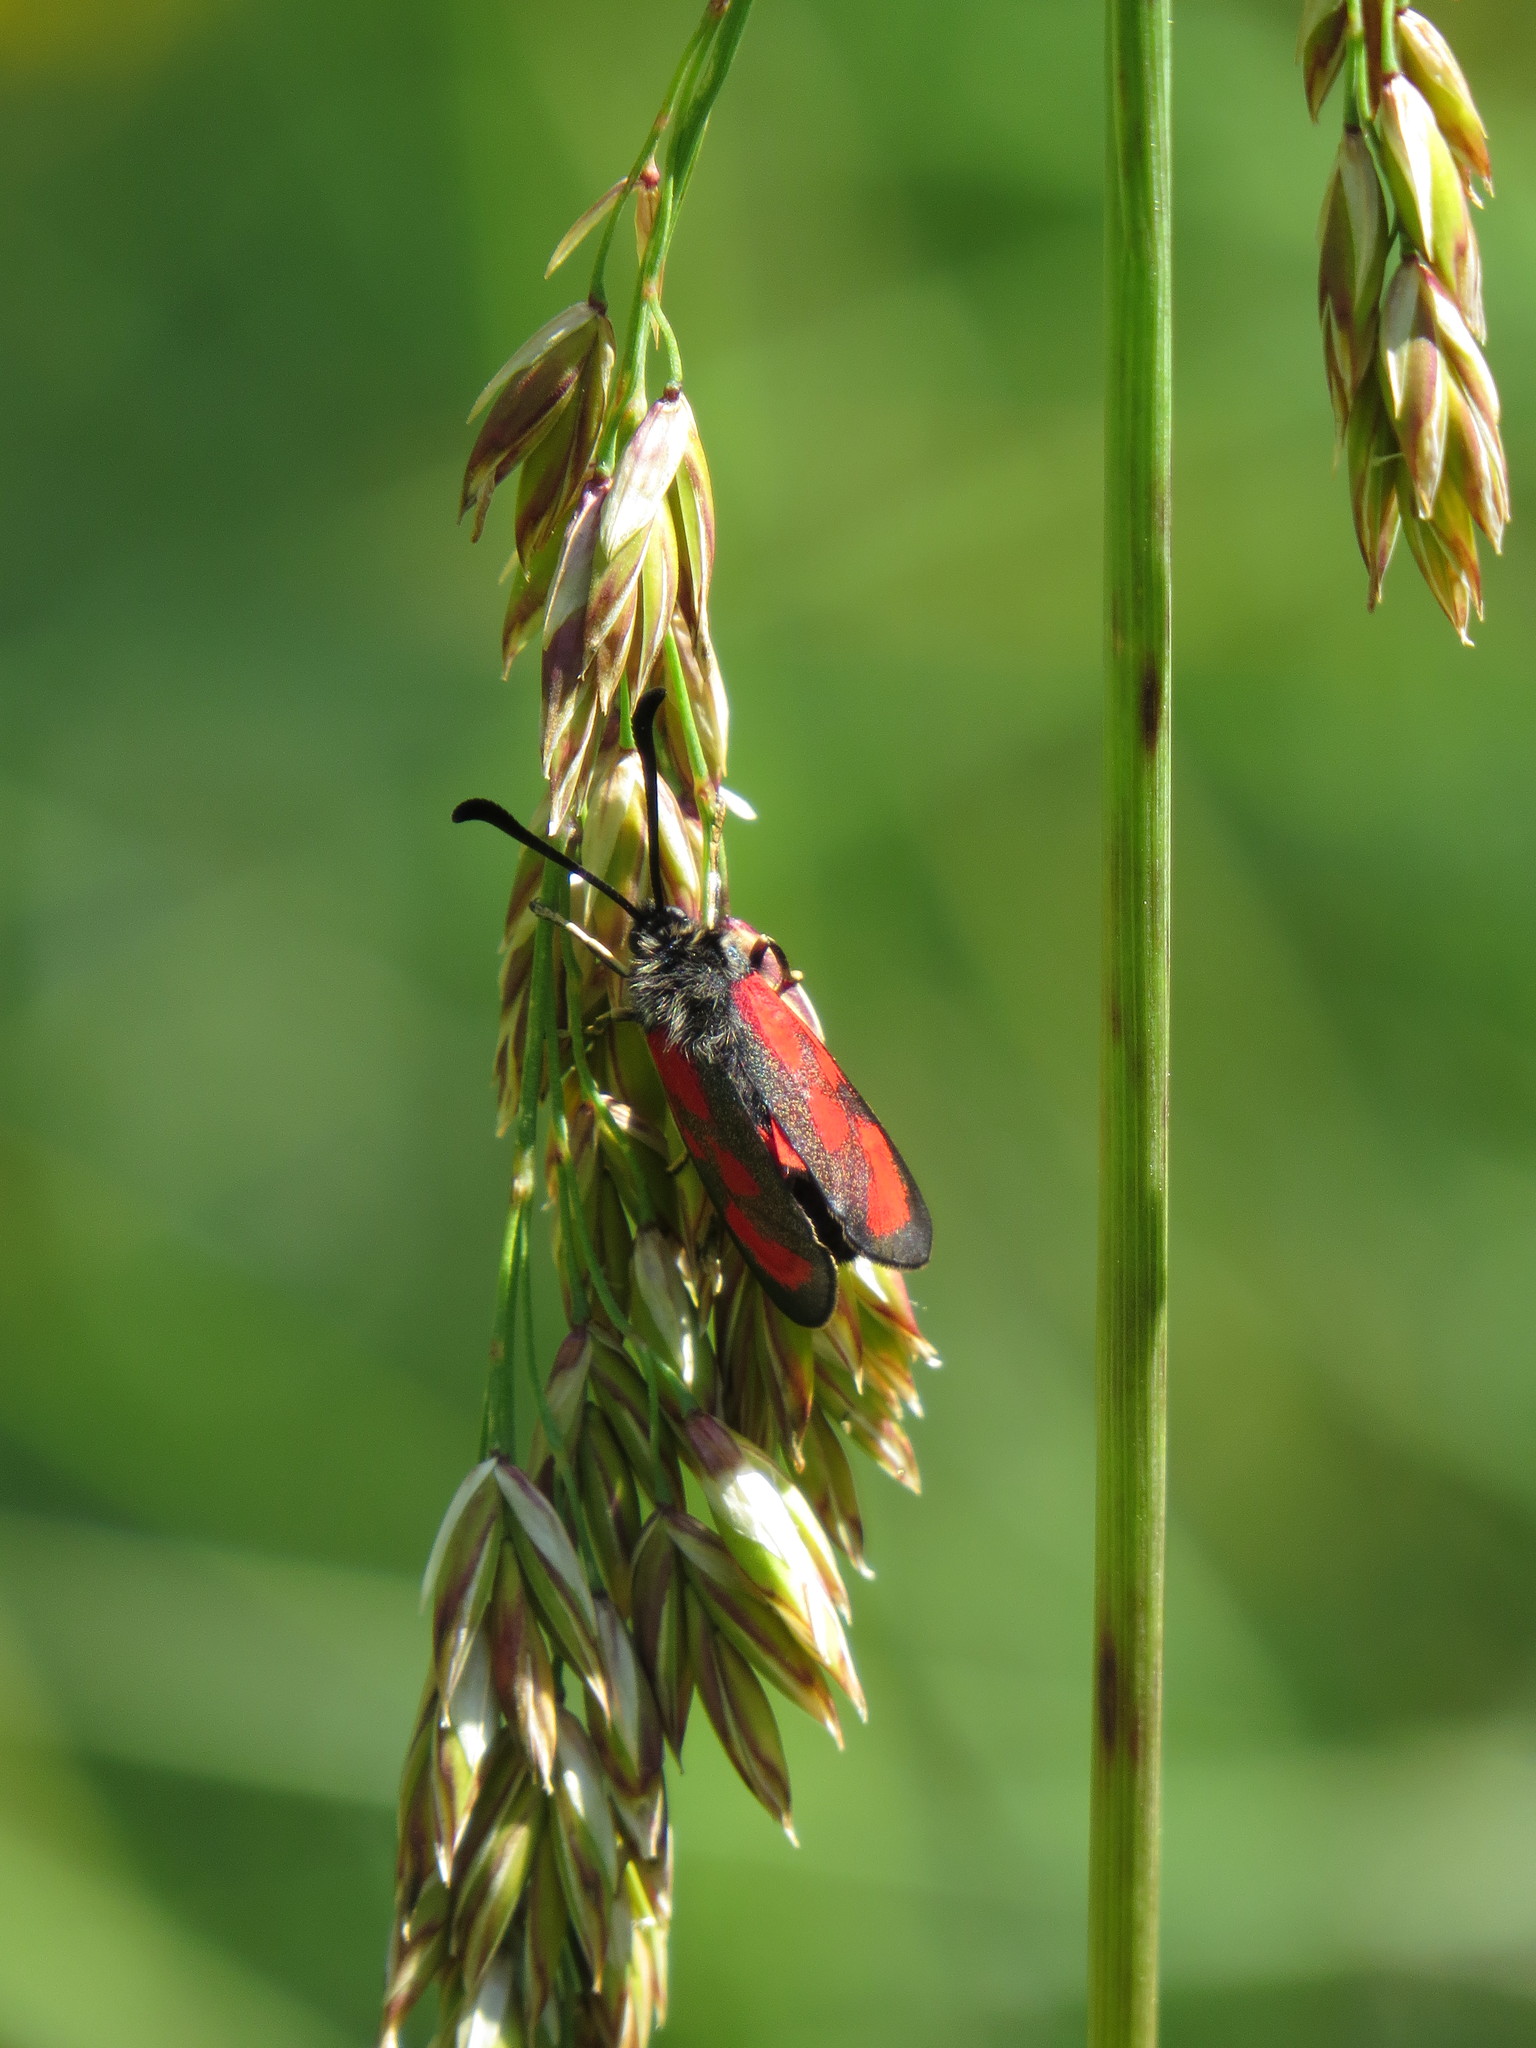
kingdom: Animalia
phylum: Arthropoda
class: Insecta
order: Lepidoptera
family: Zygaenidae
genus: Zygaena
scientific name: Zygaena loti
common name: Slender scotch burnet
